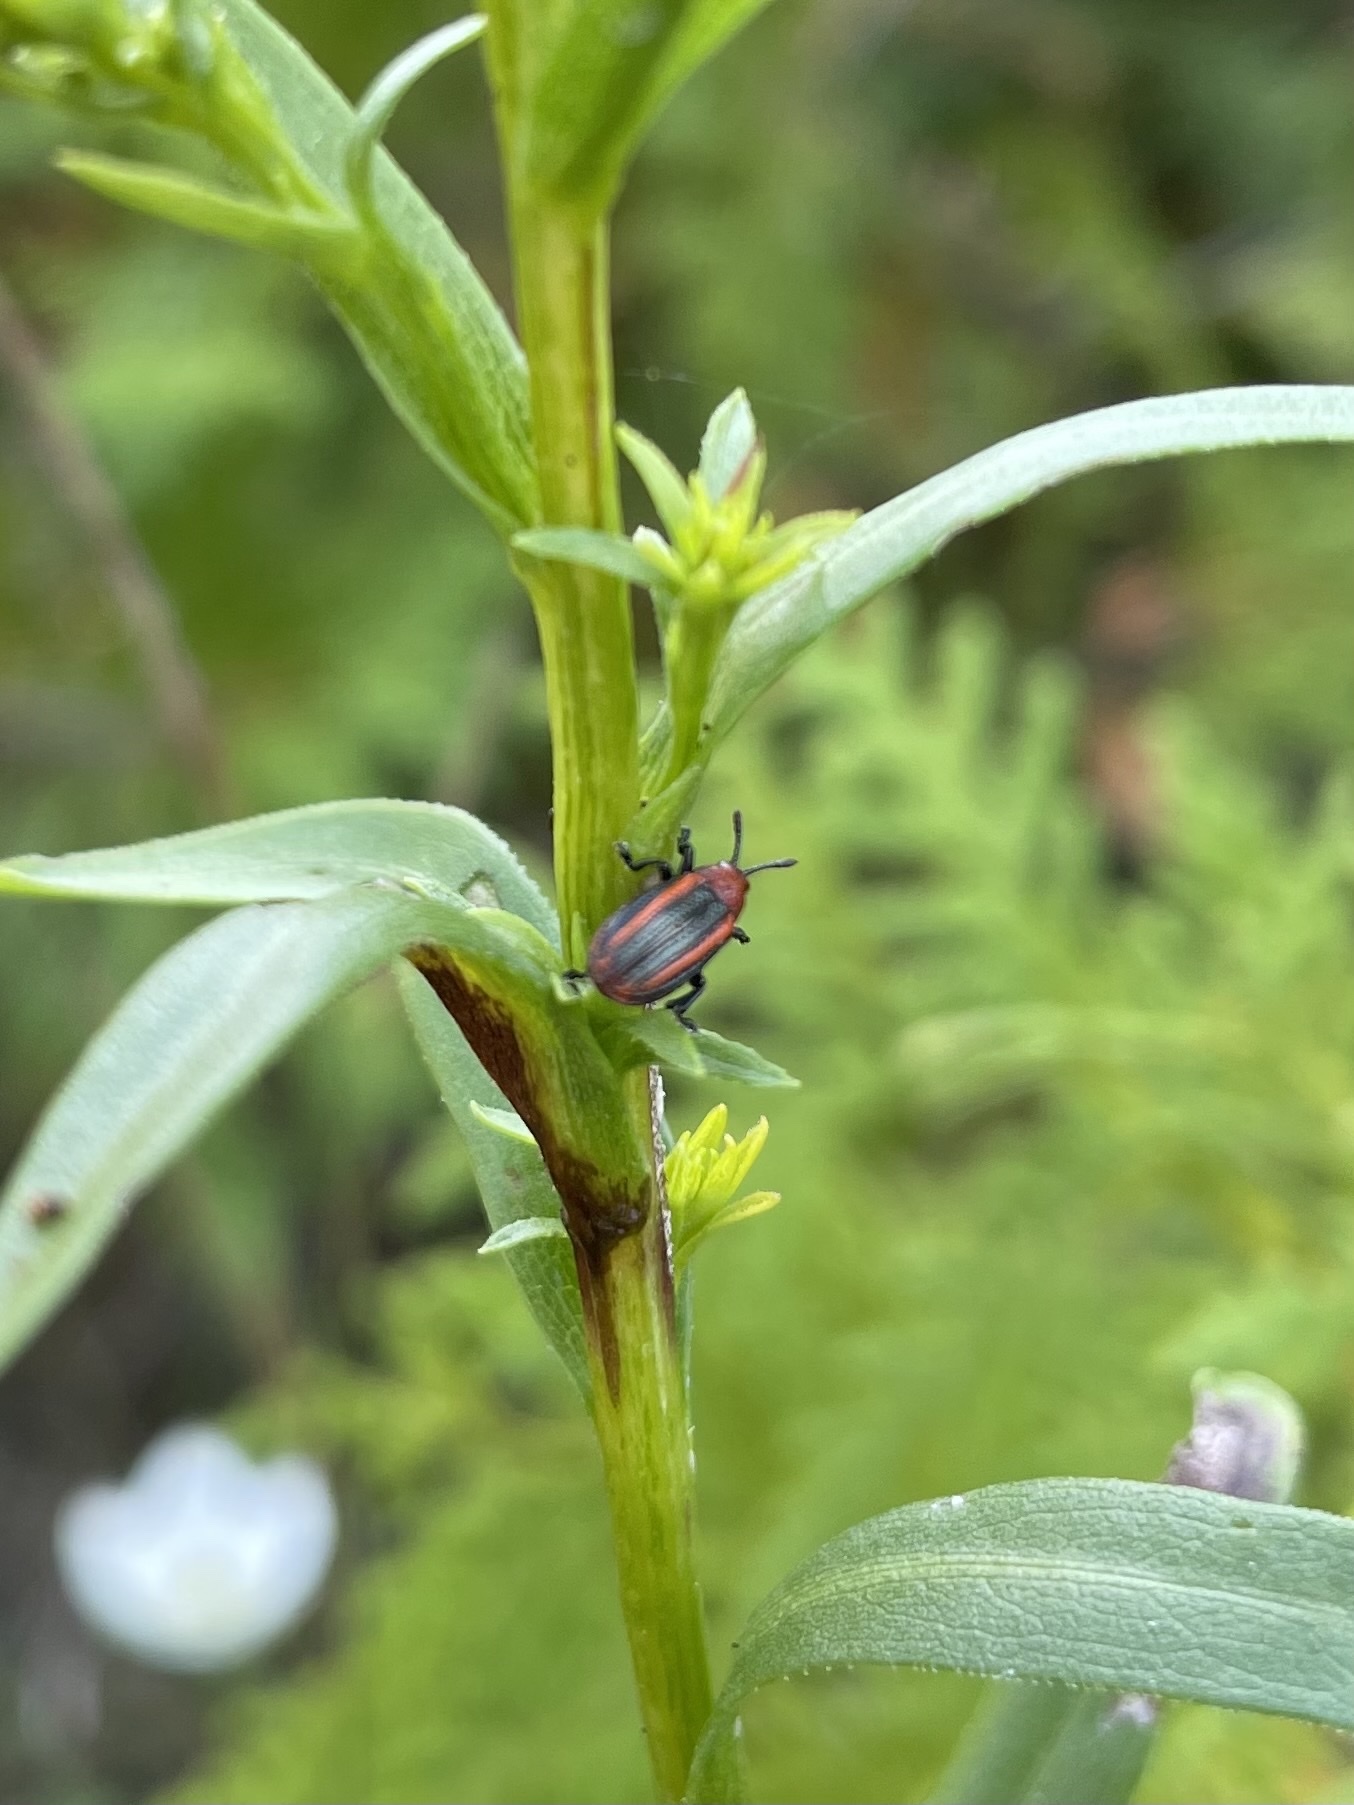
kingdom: Animalia
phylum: Arthropoda
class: Insecta
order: Coleoptera
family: Chrysomelidae
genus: Microrhopala
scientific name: Microrhopala vittata
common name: Goldenrod leaf miner beetle
